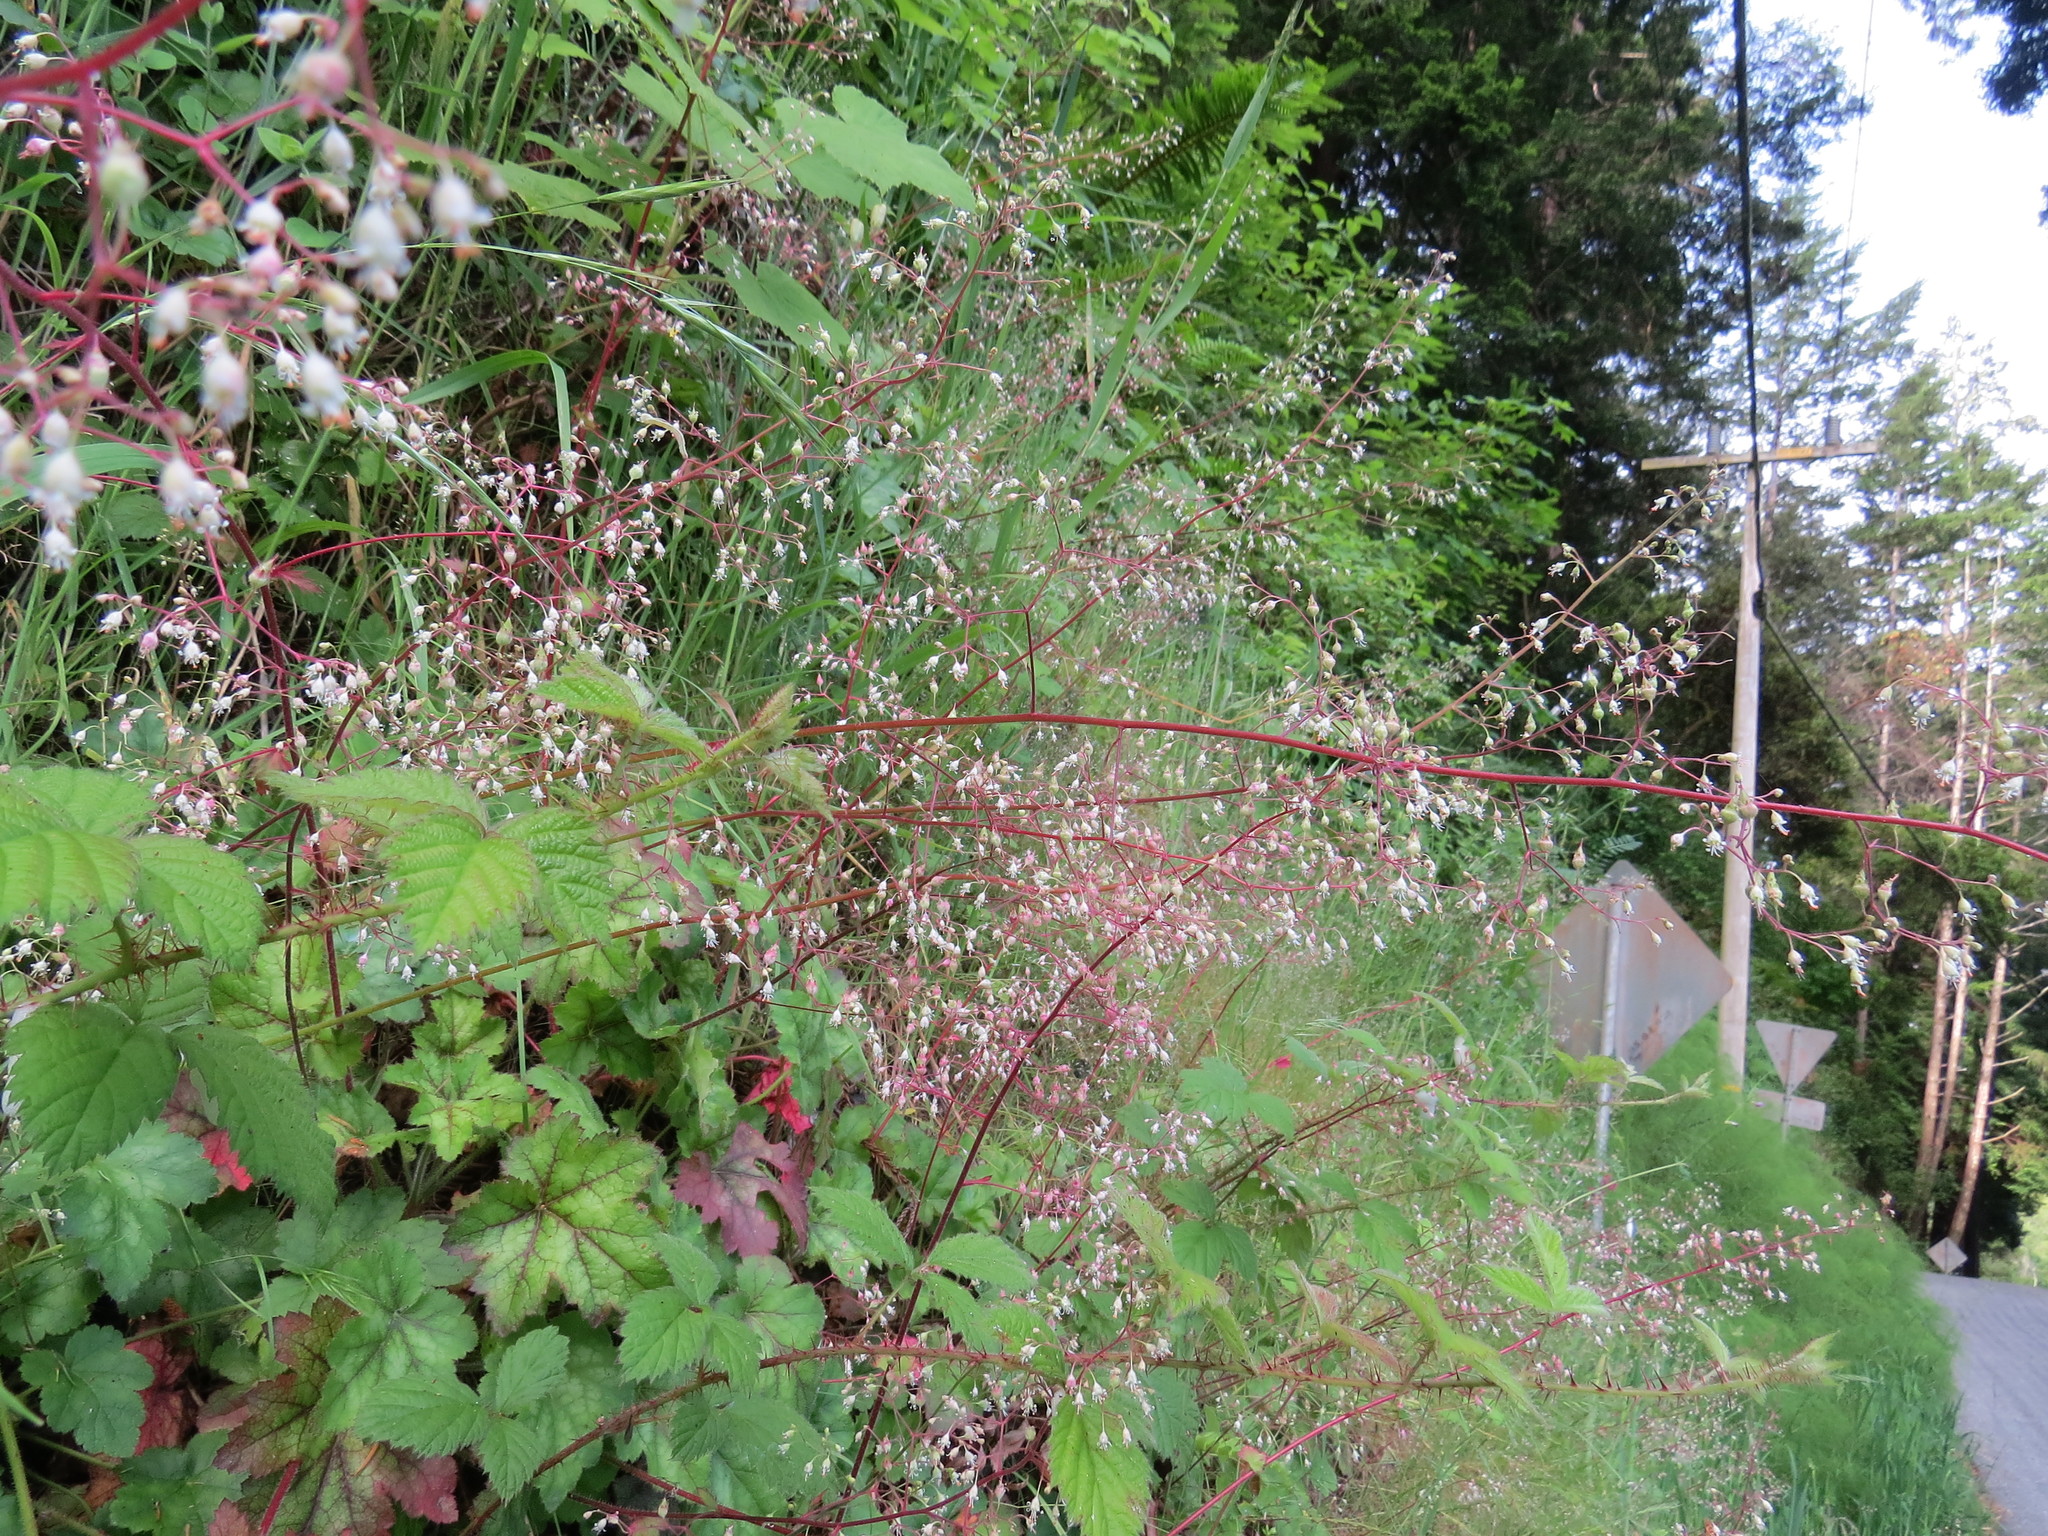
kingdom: Plantae
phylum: Tracheophyta
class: Magnoliopsida
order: Saxifragales
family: Saxifragaceae
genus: Heuchera
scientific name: Heuchera micrantha
